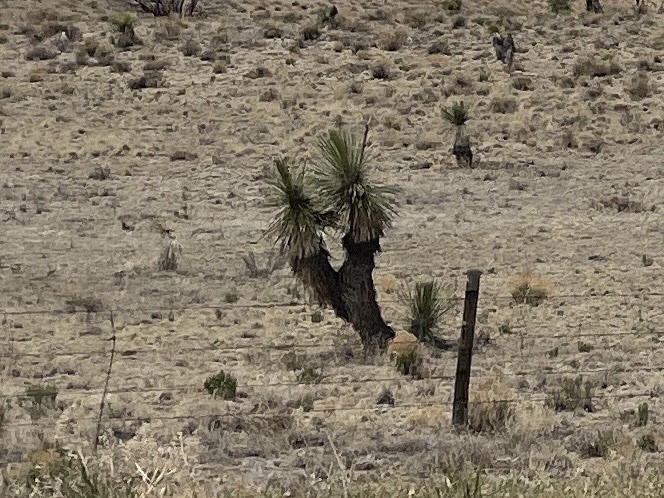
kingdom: Plantae
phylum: Tracheophyta
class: Liliopsida
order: Asparagales
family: Asparagaceae
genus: Yucca
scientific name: Yucca elata
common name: Palmella
